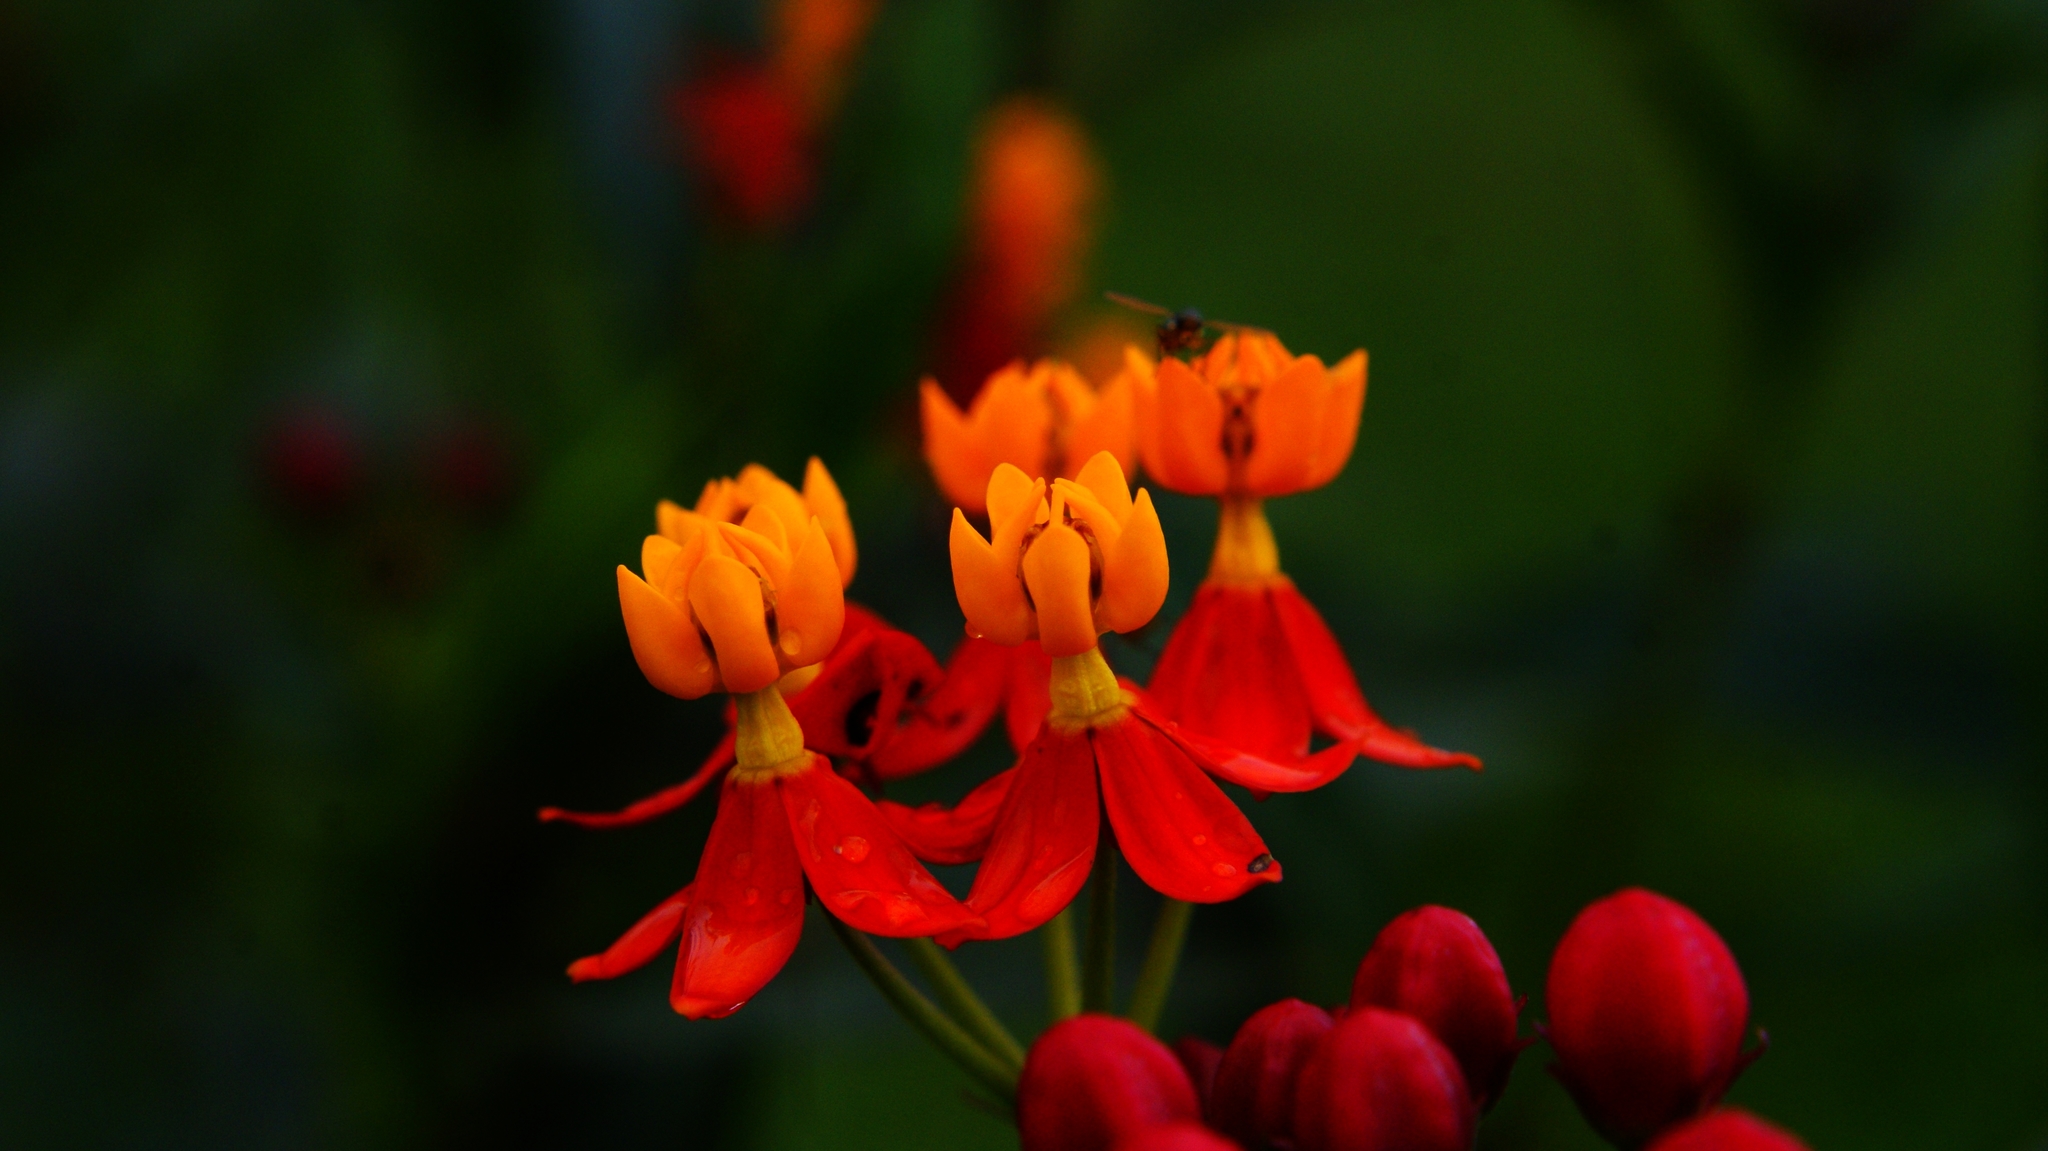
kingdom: Plantae
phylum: Tracheophyta
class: Magnoliopsida
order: Gentianales
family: Apocynaceae
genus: Asclepias
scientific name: Asclepias curassavica
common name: Bloodflower
